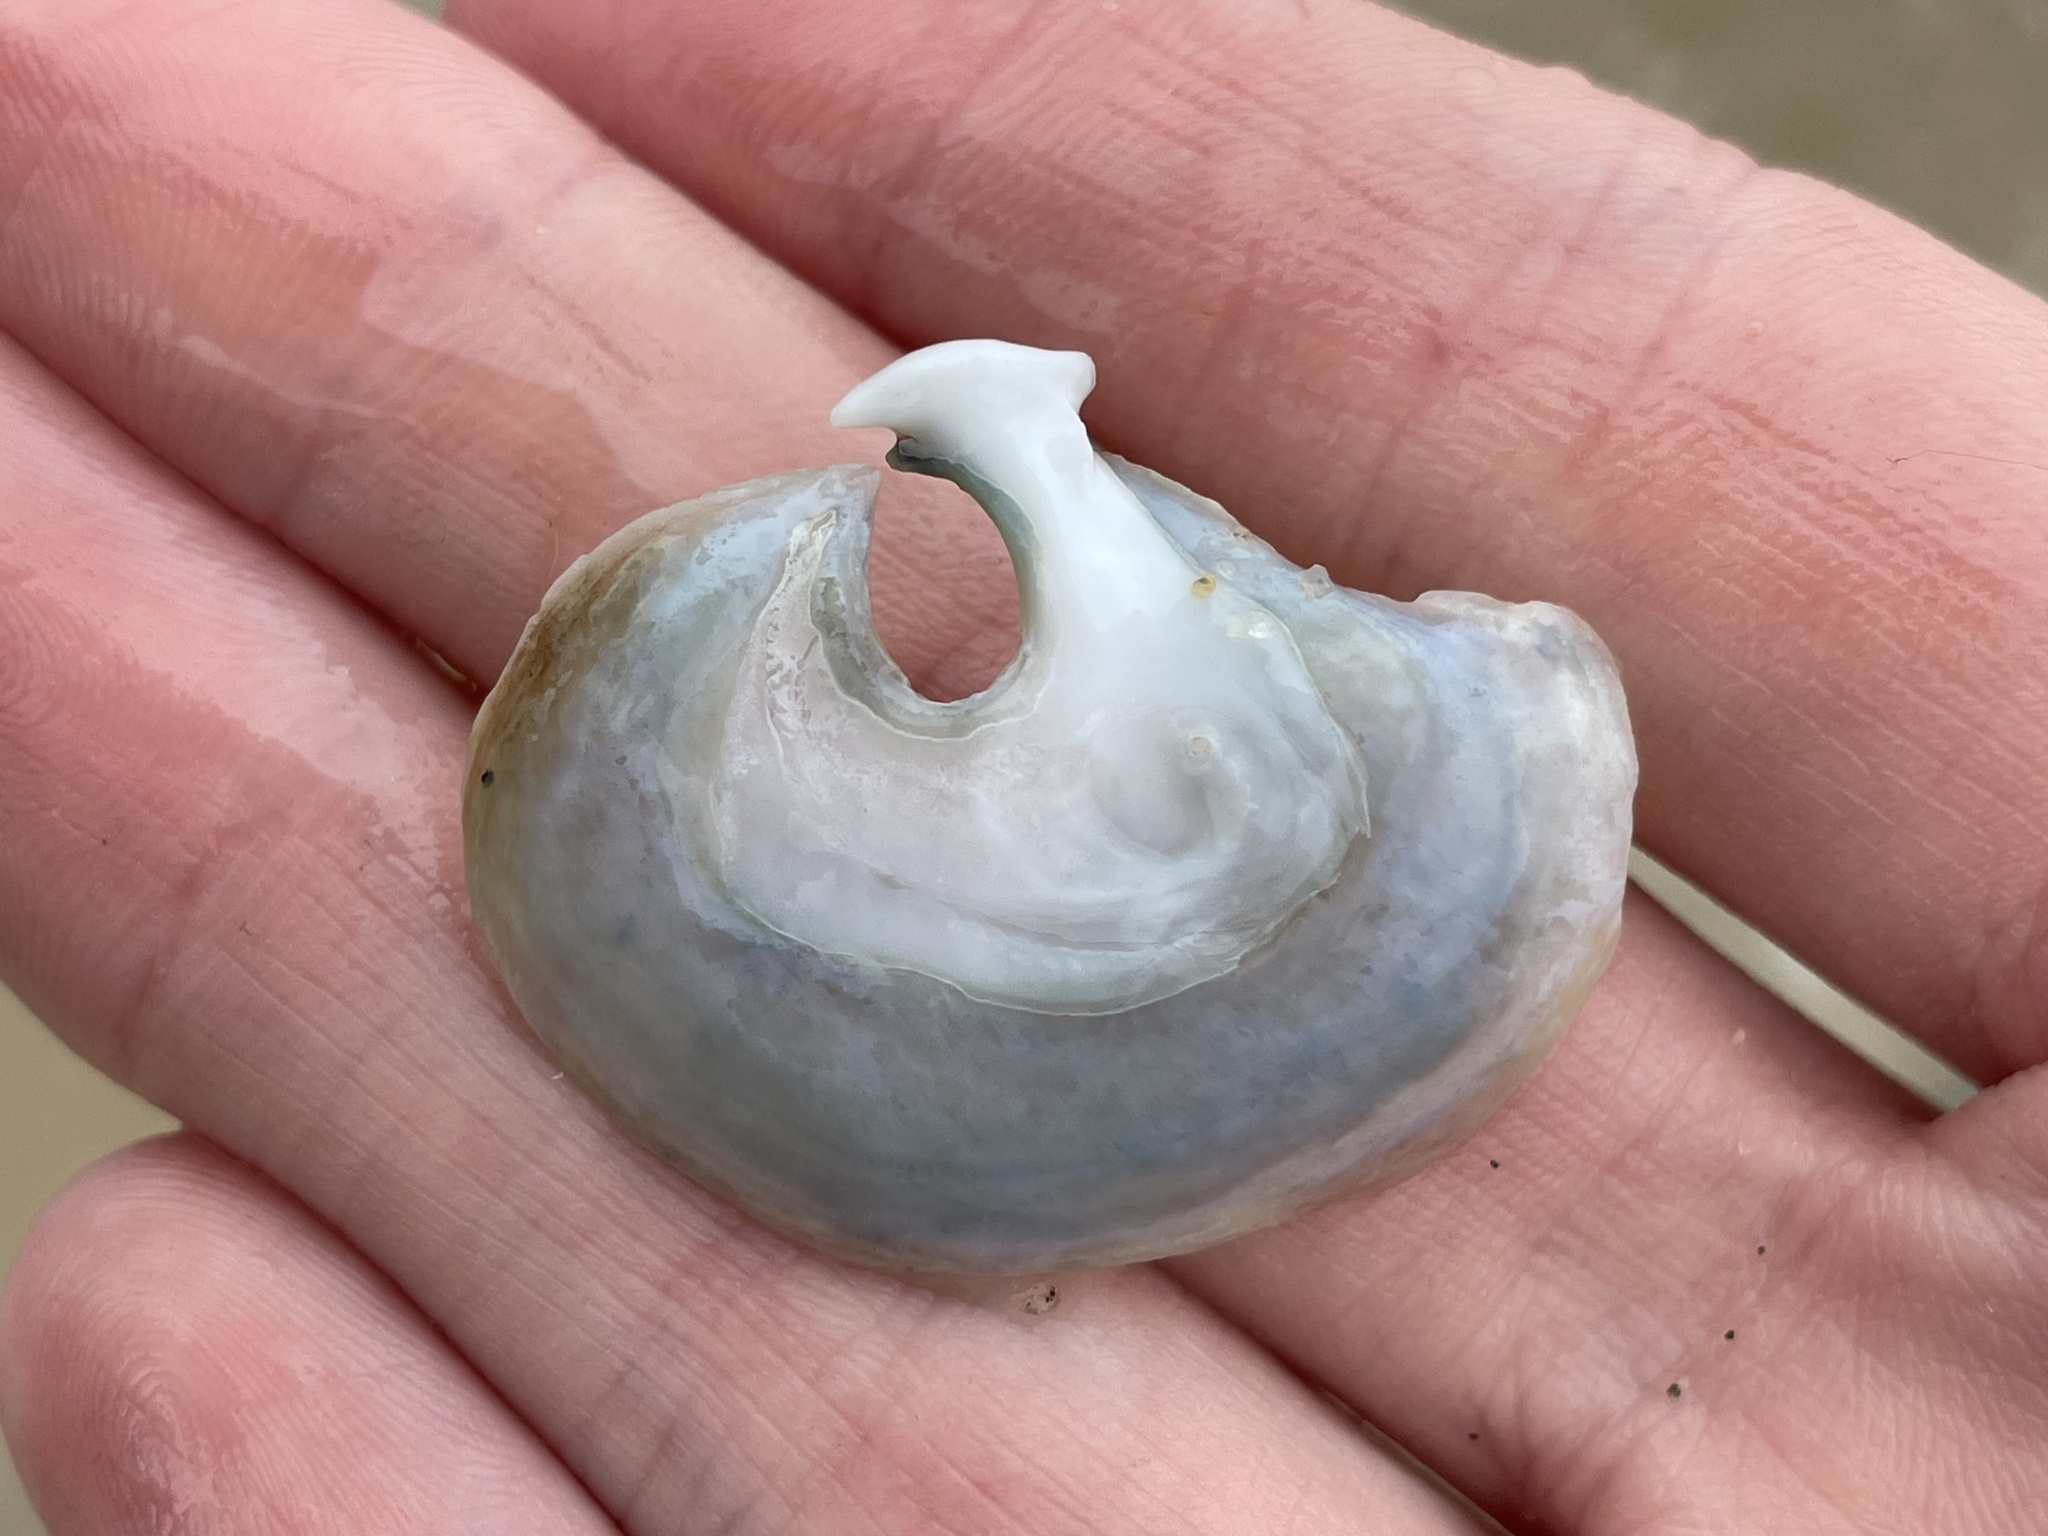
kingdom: Animalia
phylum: Mollusca
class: Bivalvia
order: Pectinida
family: Anomiidae
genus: Anomia
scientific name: Anomia simplex
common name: Common jingle shell
